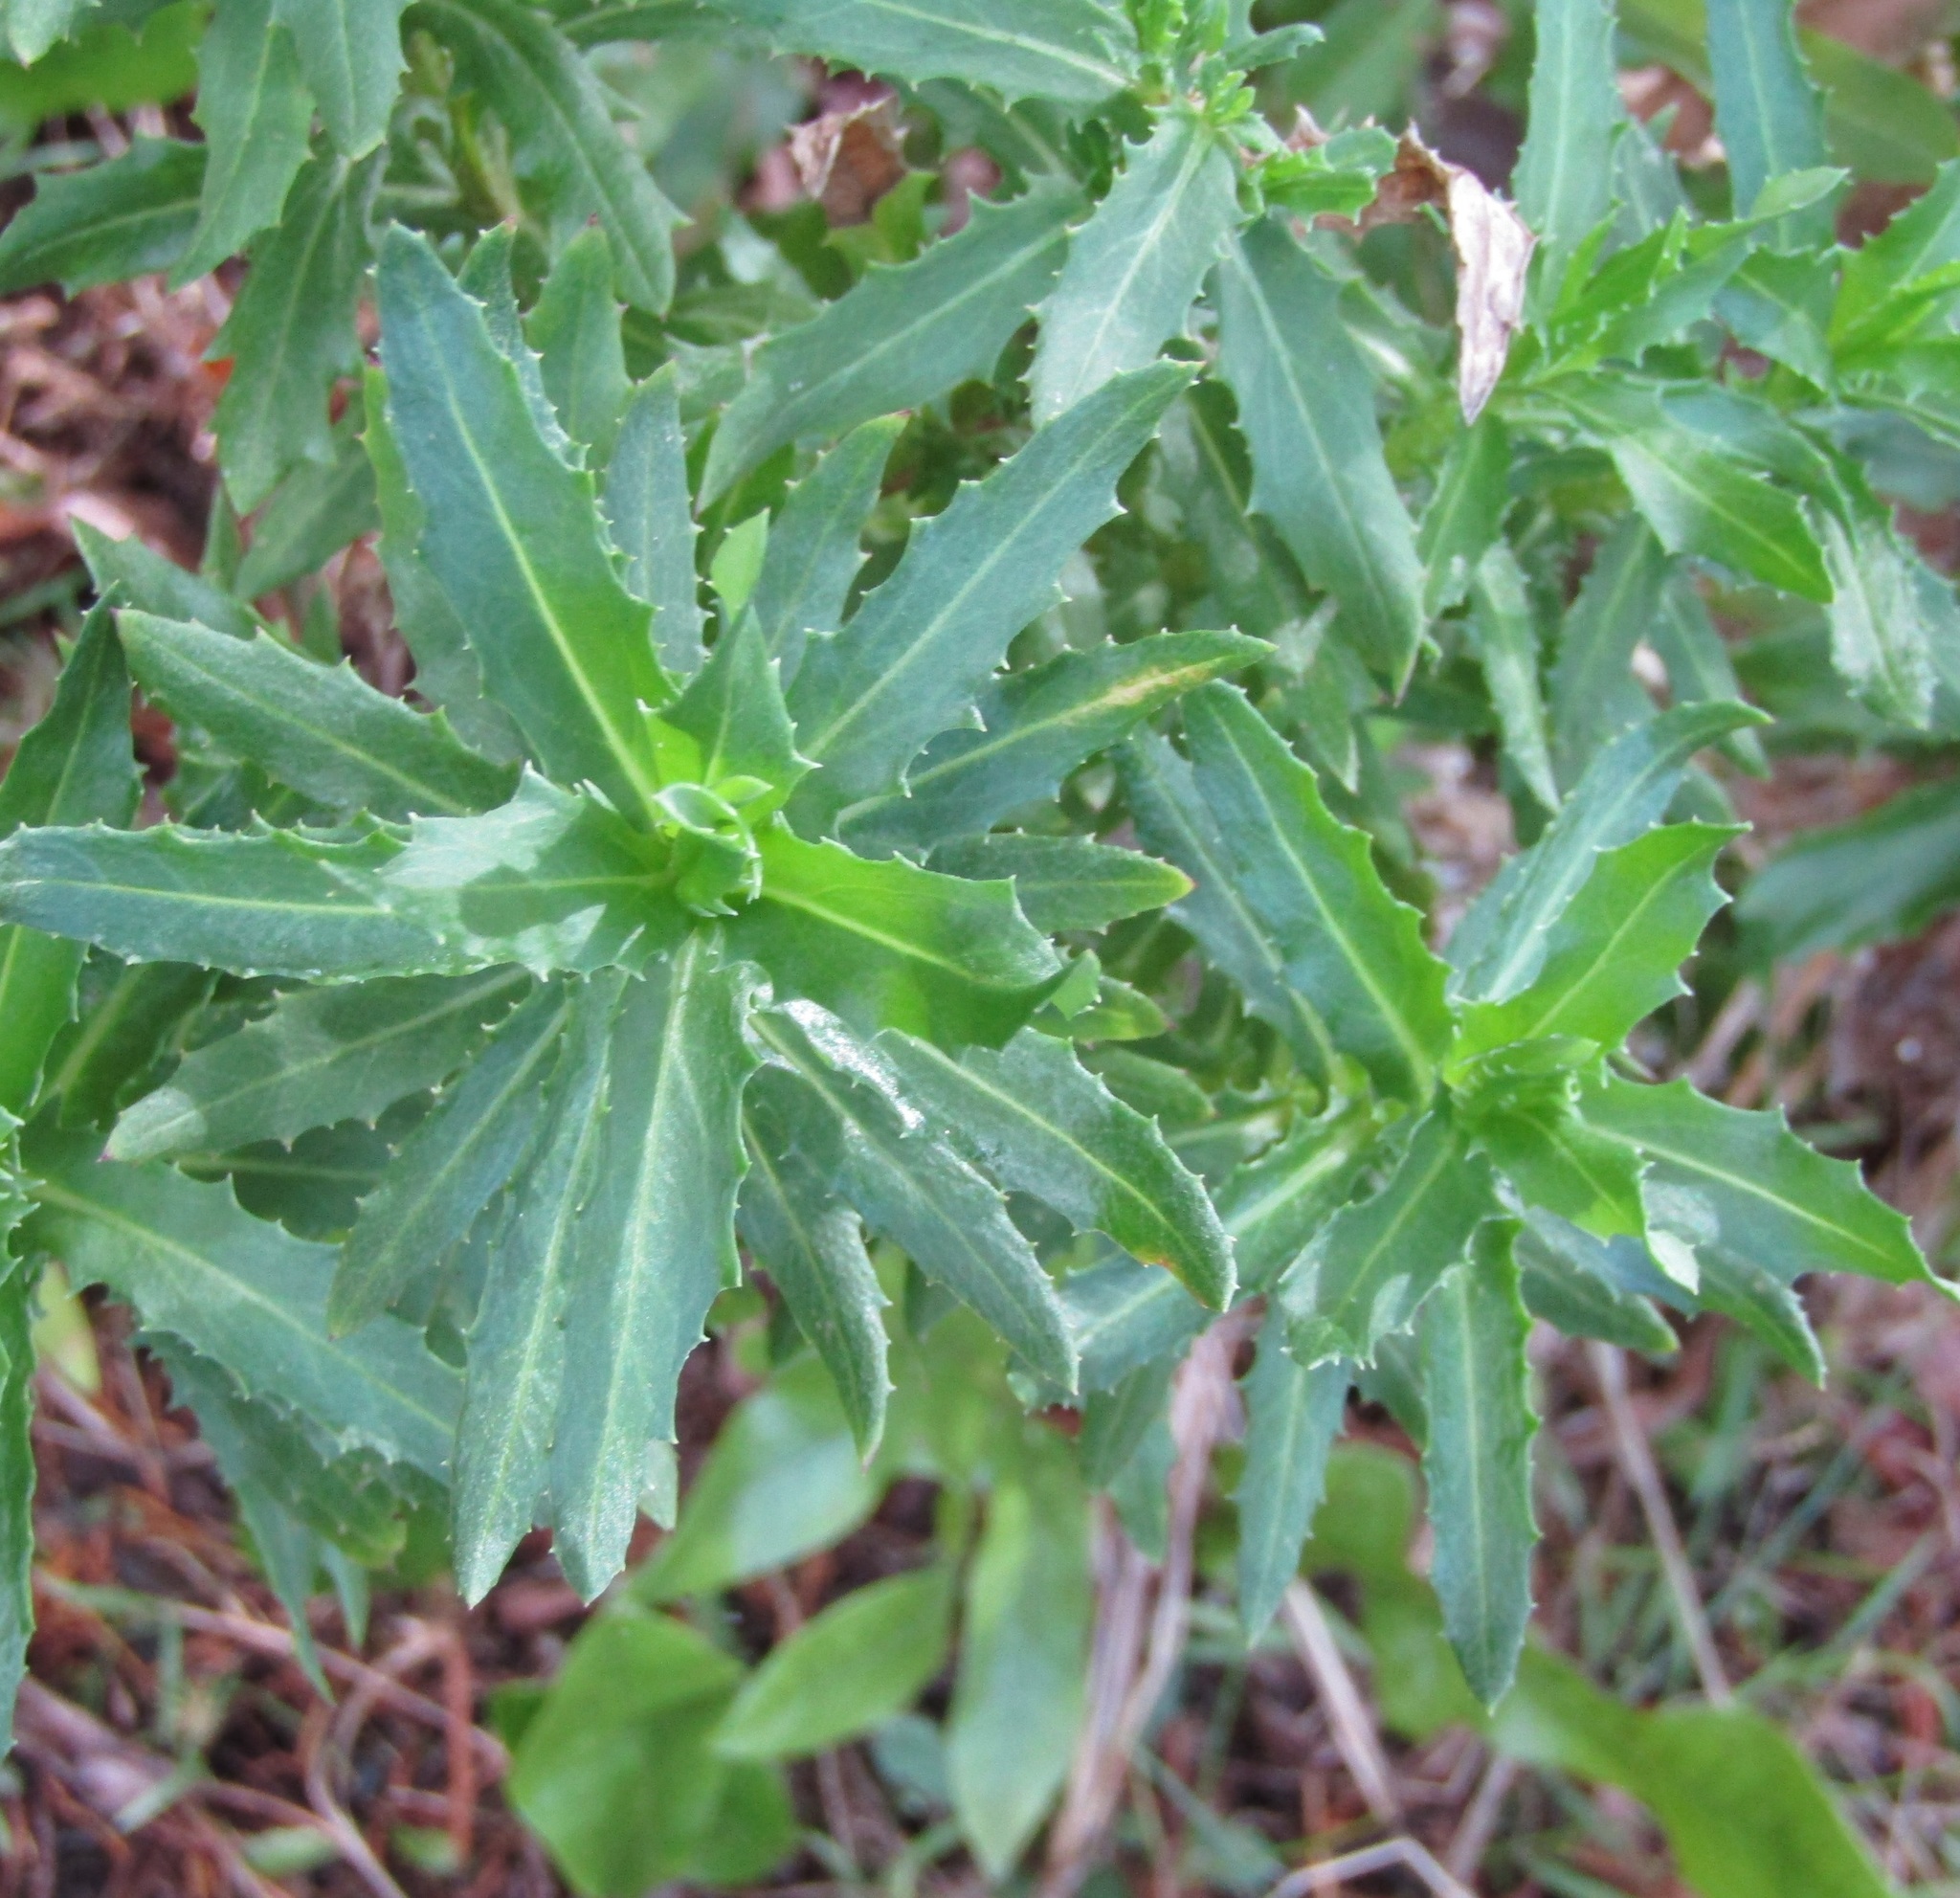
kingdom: Plantae
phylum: Tracheophyta
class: Magnoliopsida
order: Asterales
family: Asteraceae
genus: Senecio
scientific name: Senecio glastifolius
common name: Woad-leaved ragwort
